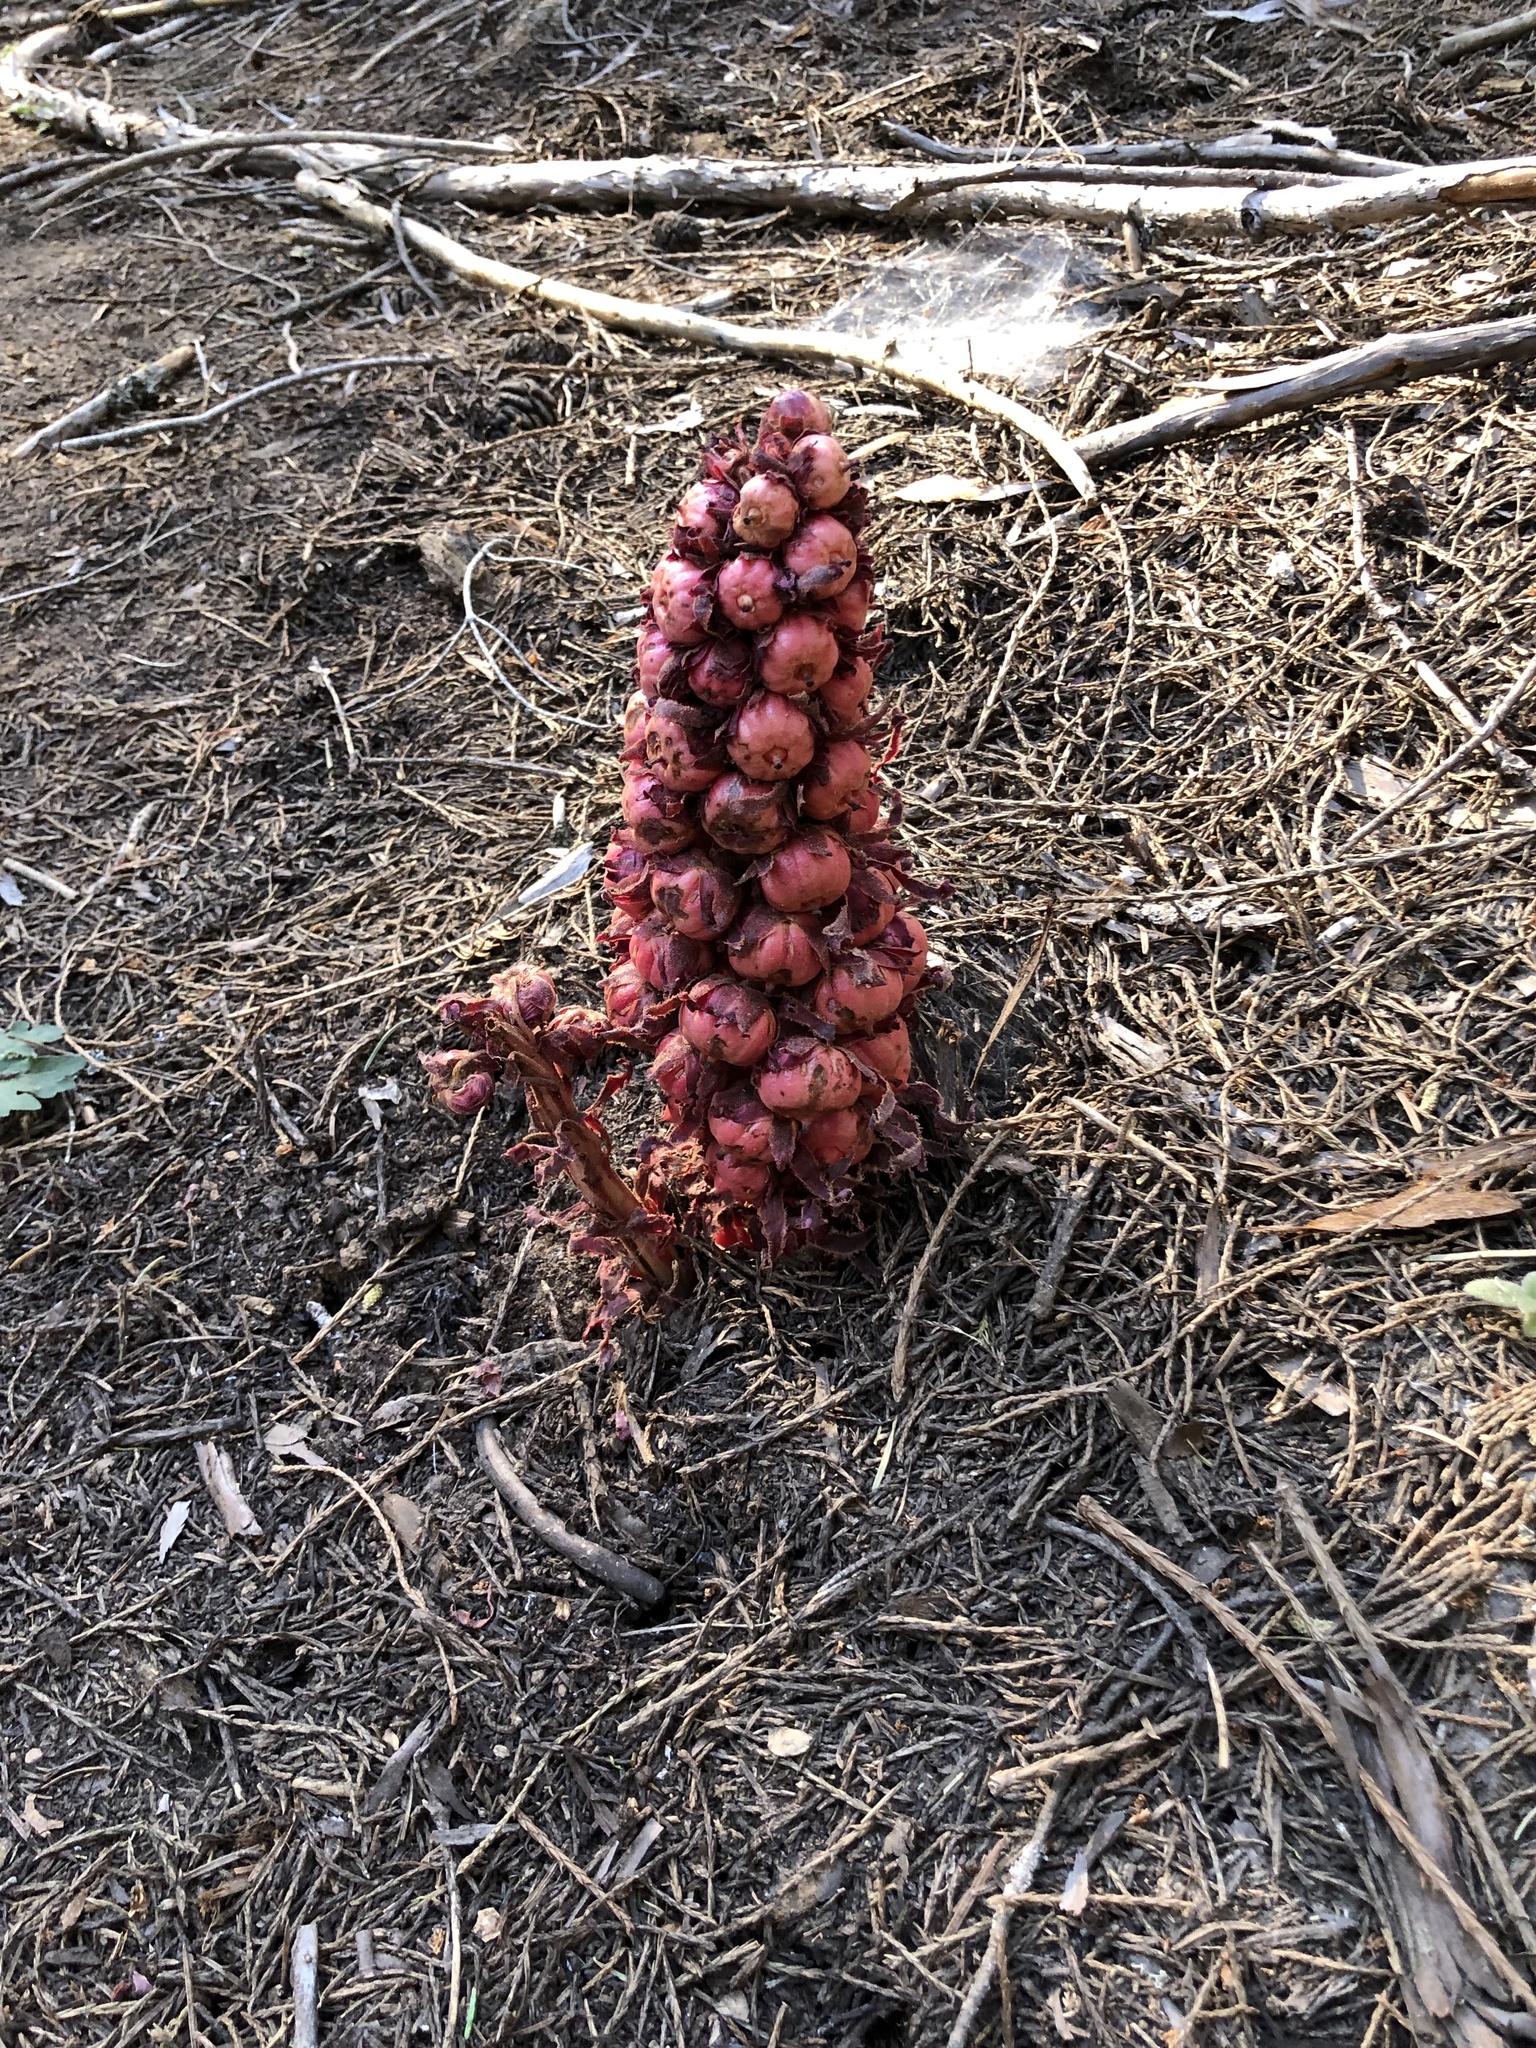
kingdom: Plantae
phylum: Tracheophyta
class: Magnoliopsida
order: Ericales
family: Ericaceae
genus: Sarcodes
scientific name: Sarcodes sanguinea
